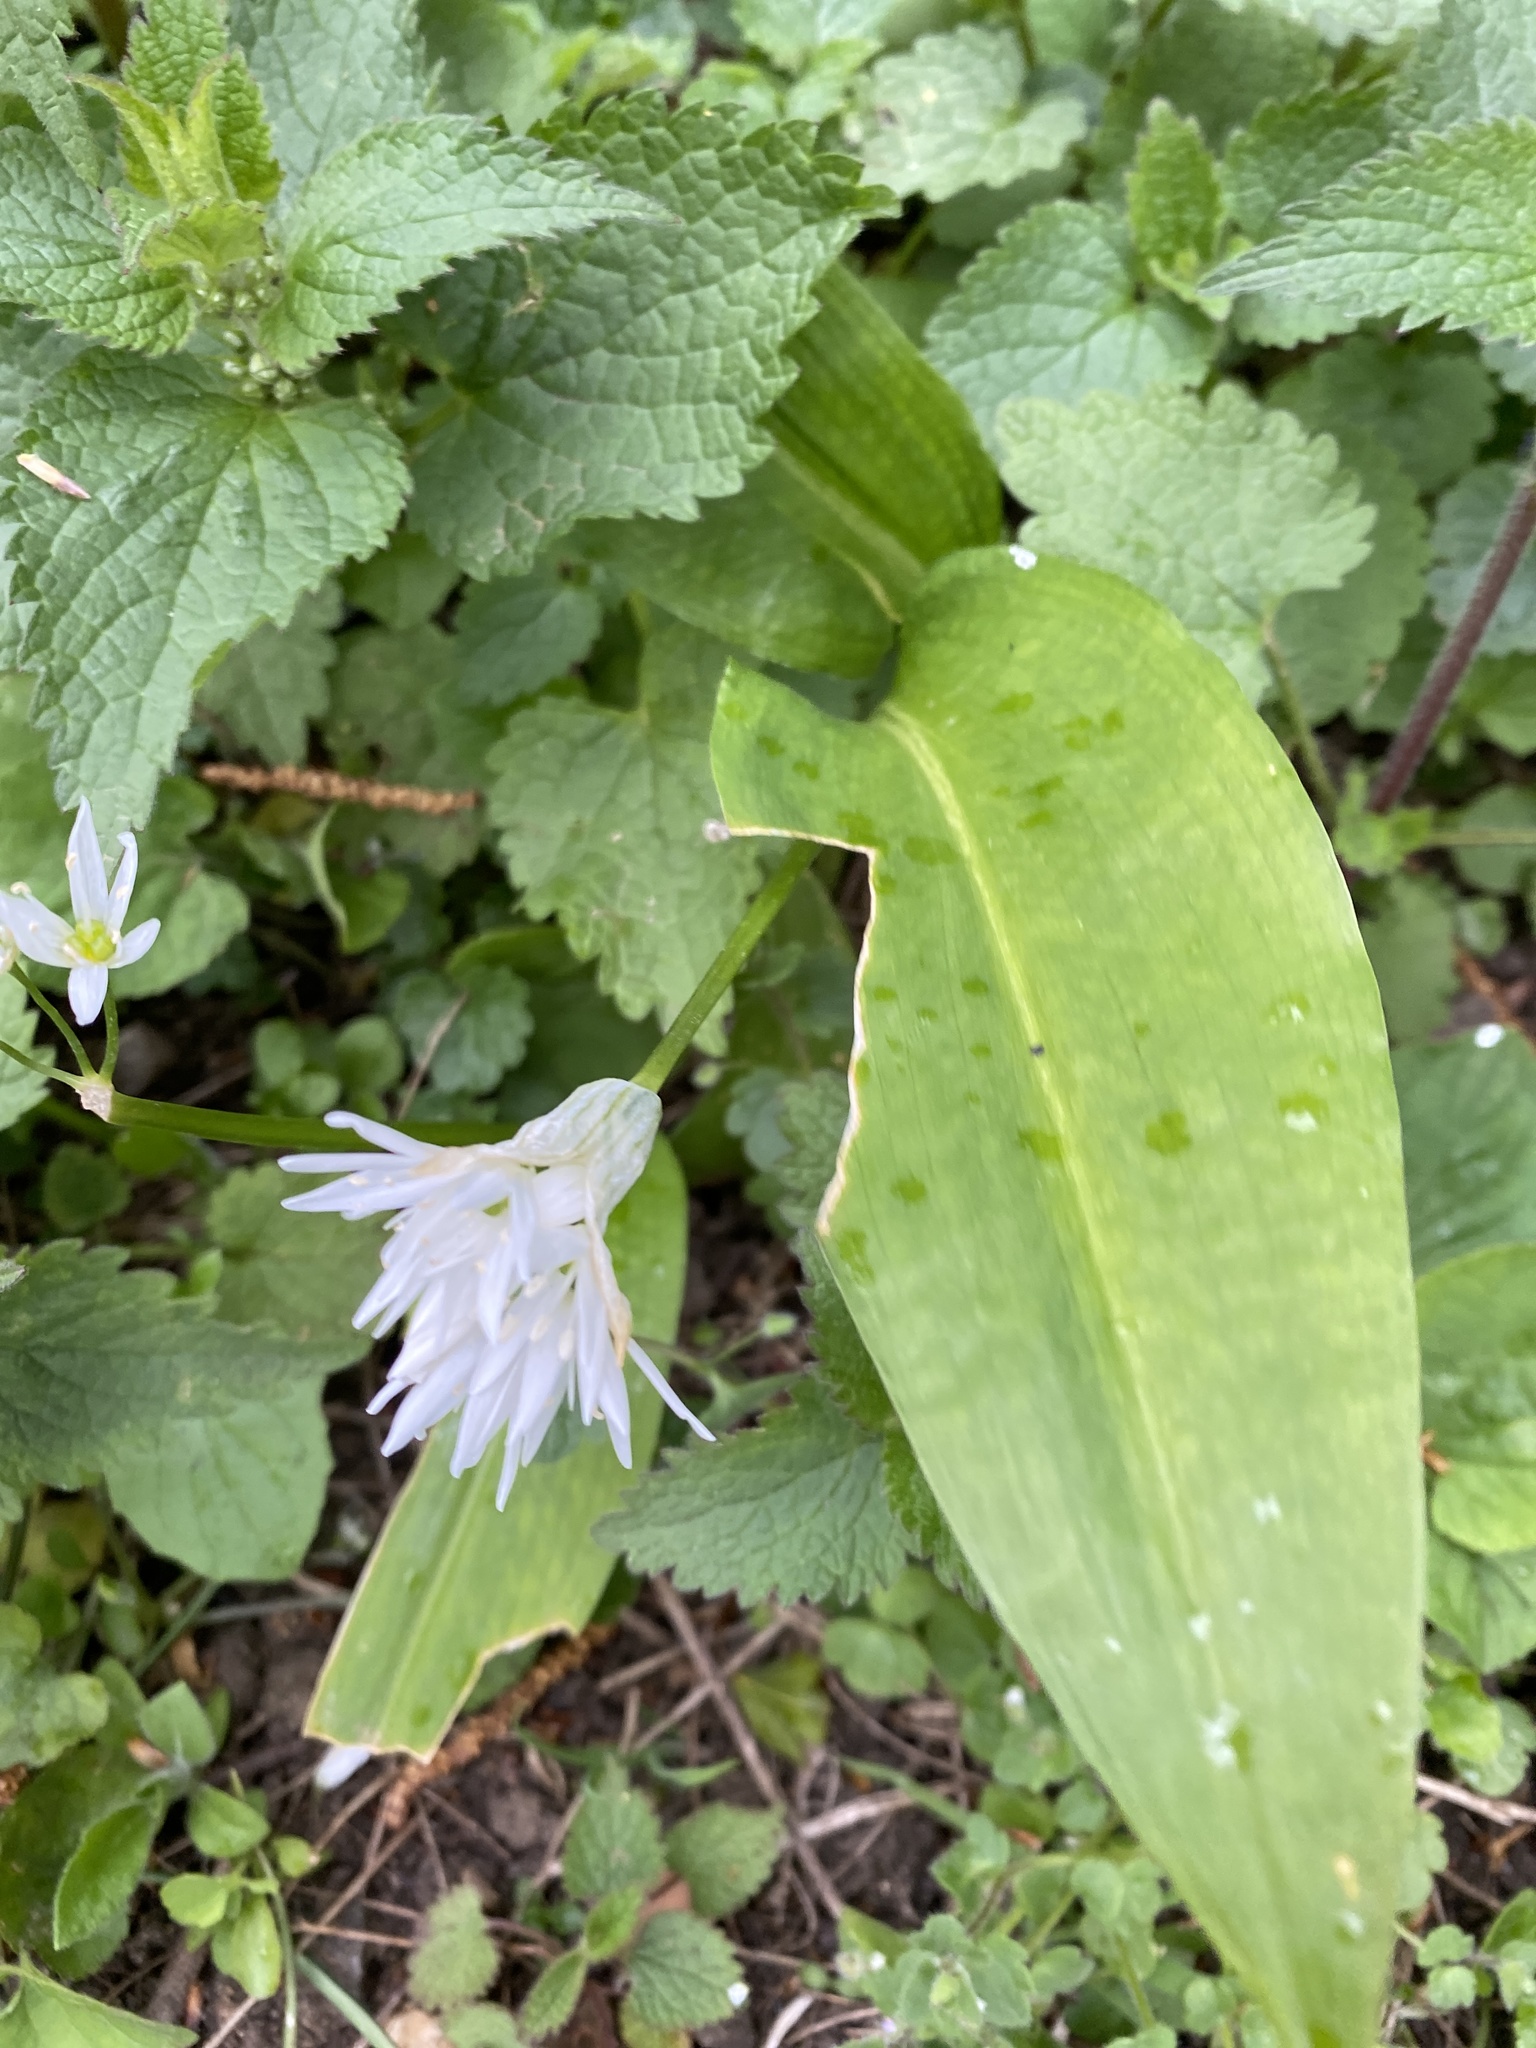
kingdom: Plantae
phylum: Tracheophyta
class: Liliopsida
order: Asparagales
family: Amaryllidaceae
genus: Allium
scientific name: Allium ursinum
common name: Ramsons
